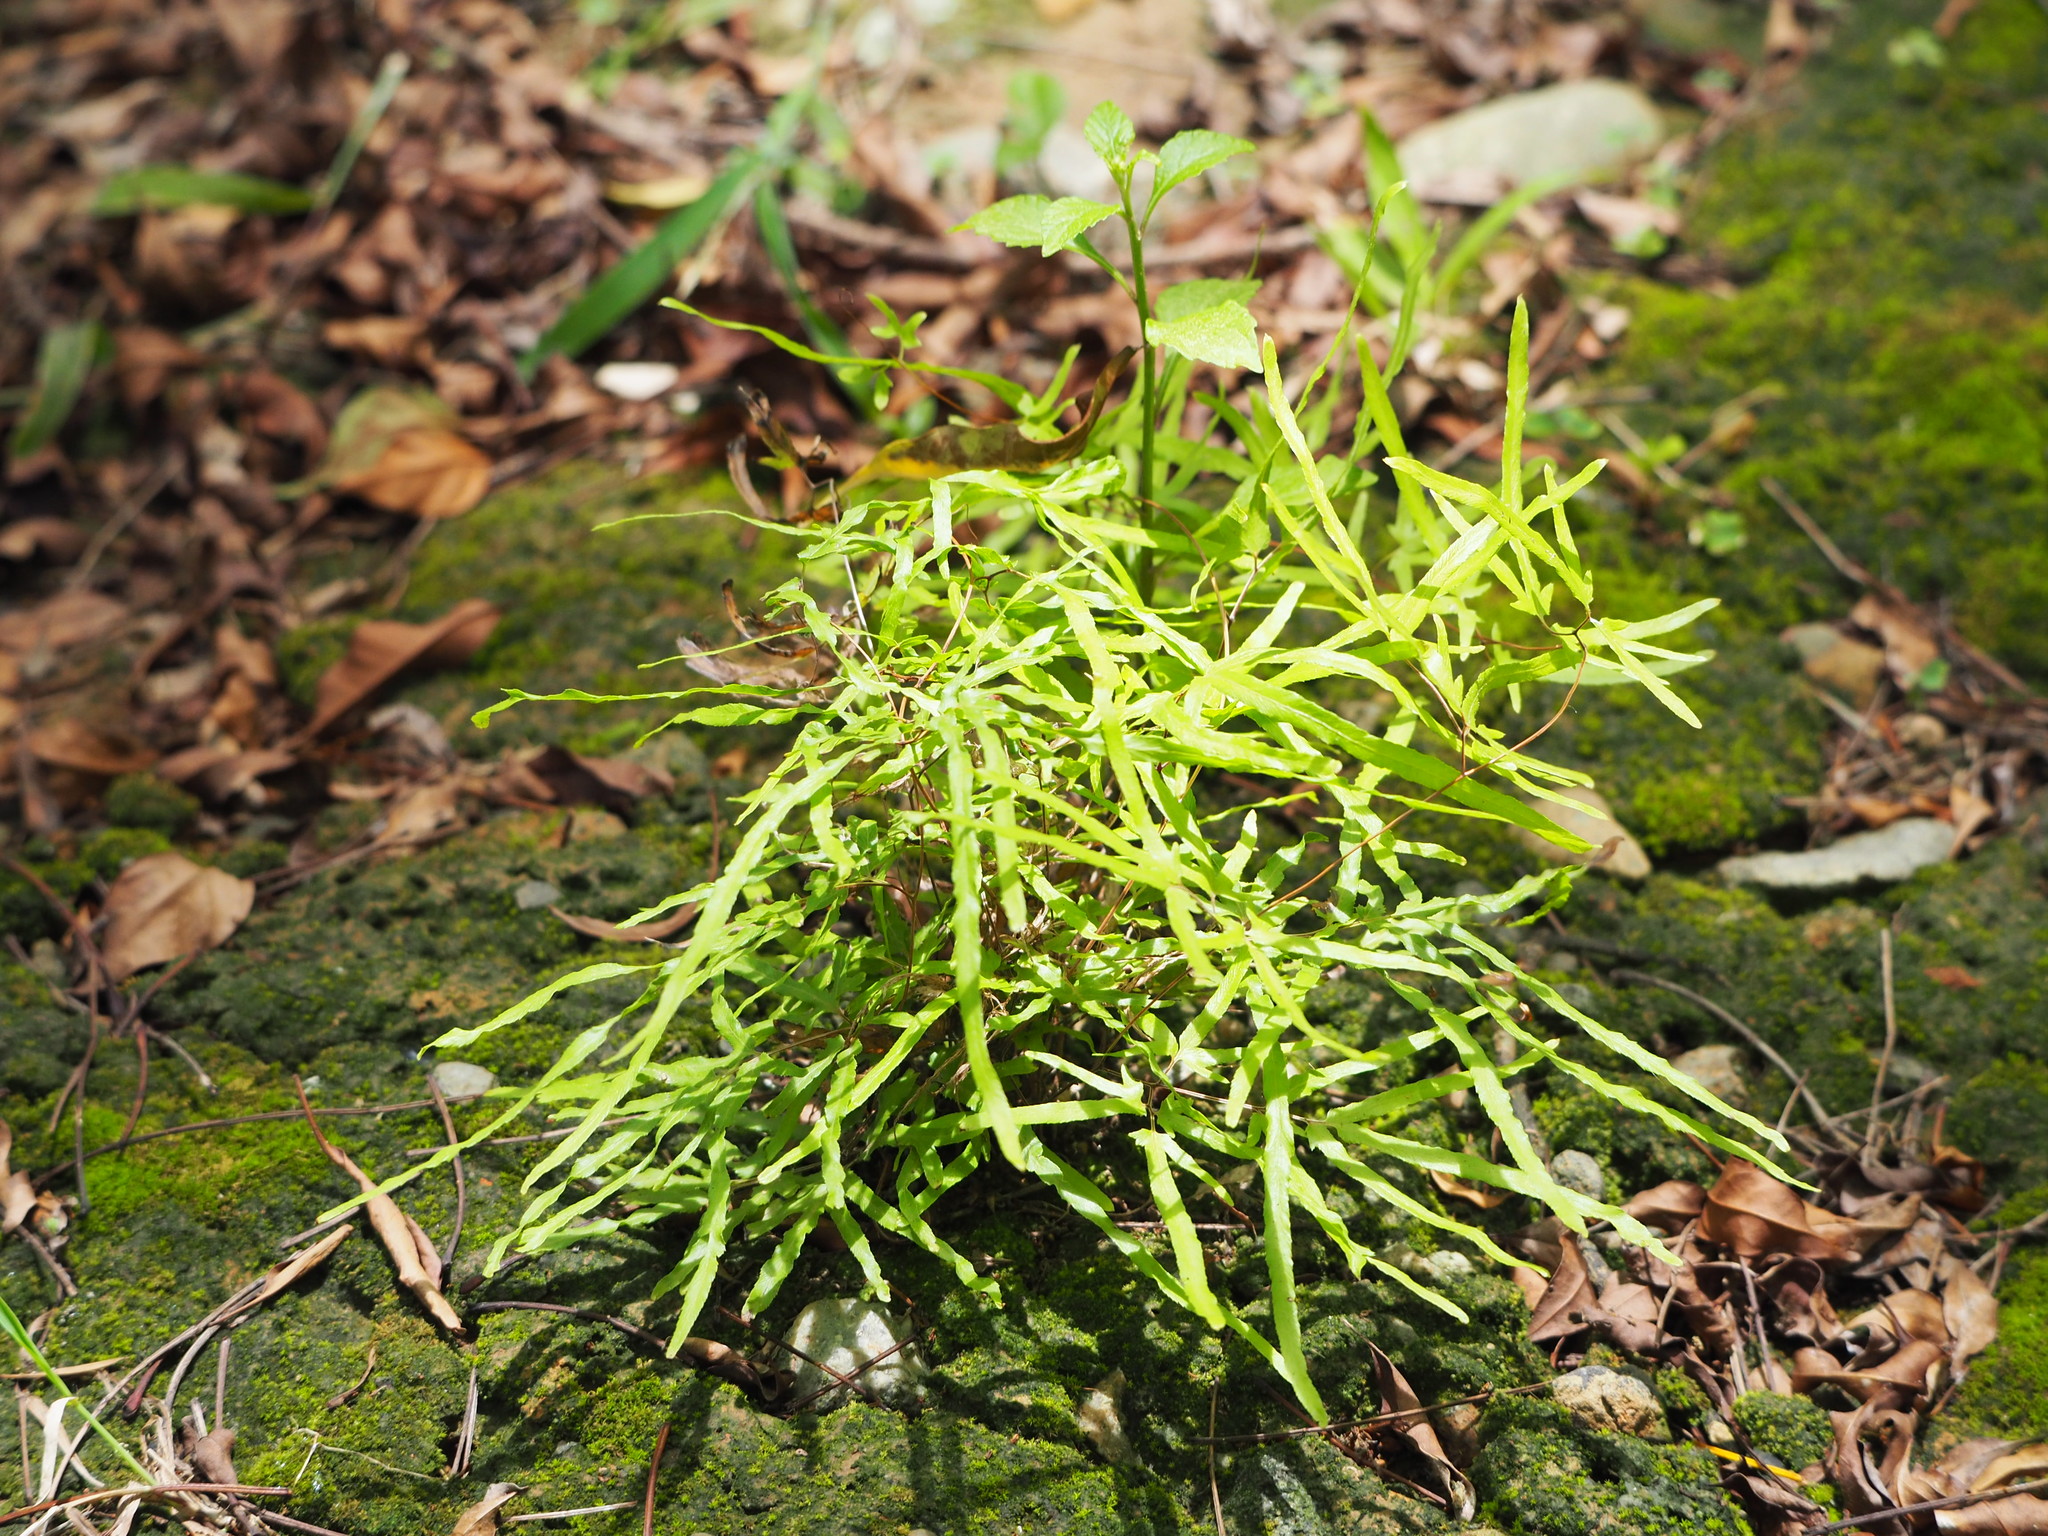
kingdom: Plantae
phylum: Tracheophyta
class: Polypodiopsida
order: Schizaeales
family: Lygodiaceae
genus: Lygodium
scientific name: Lygodium japonicum
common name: Japanese climbing fern
